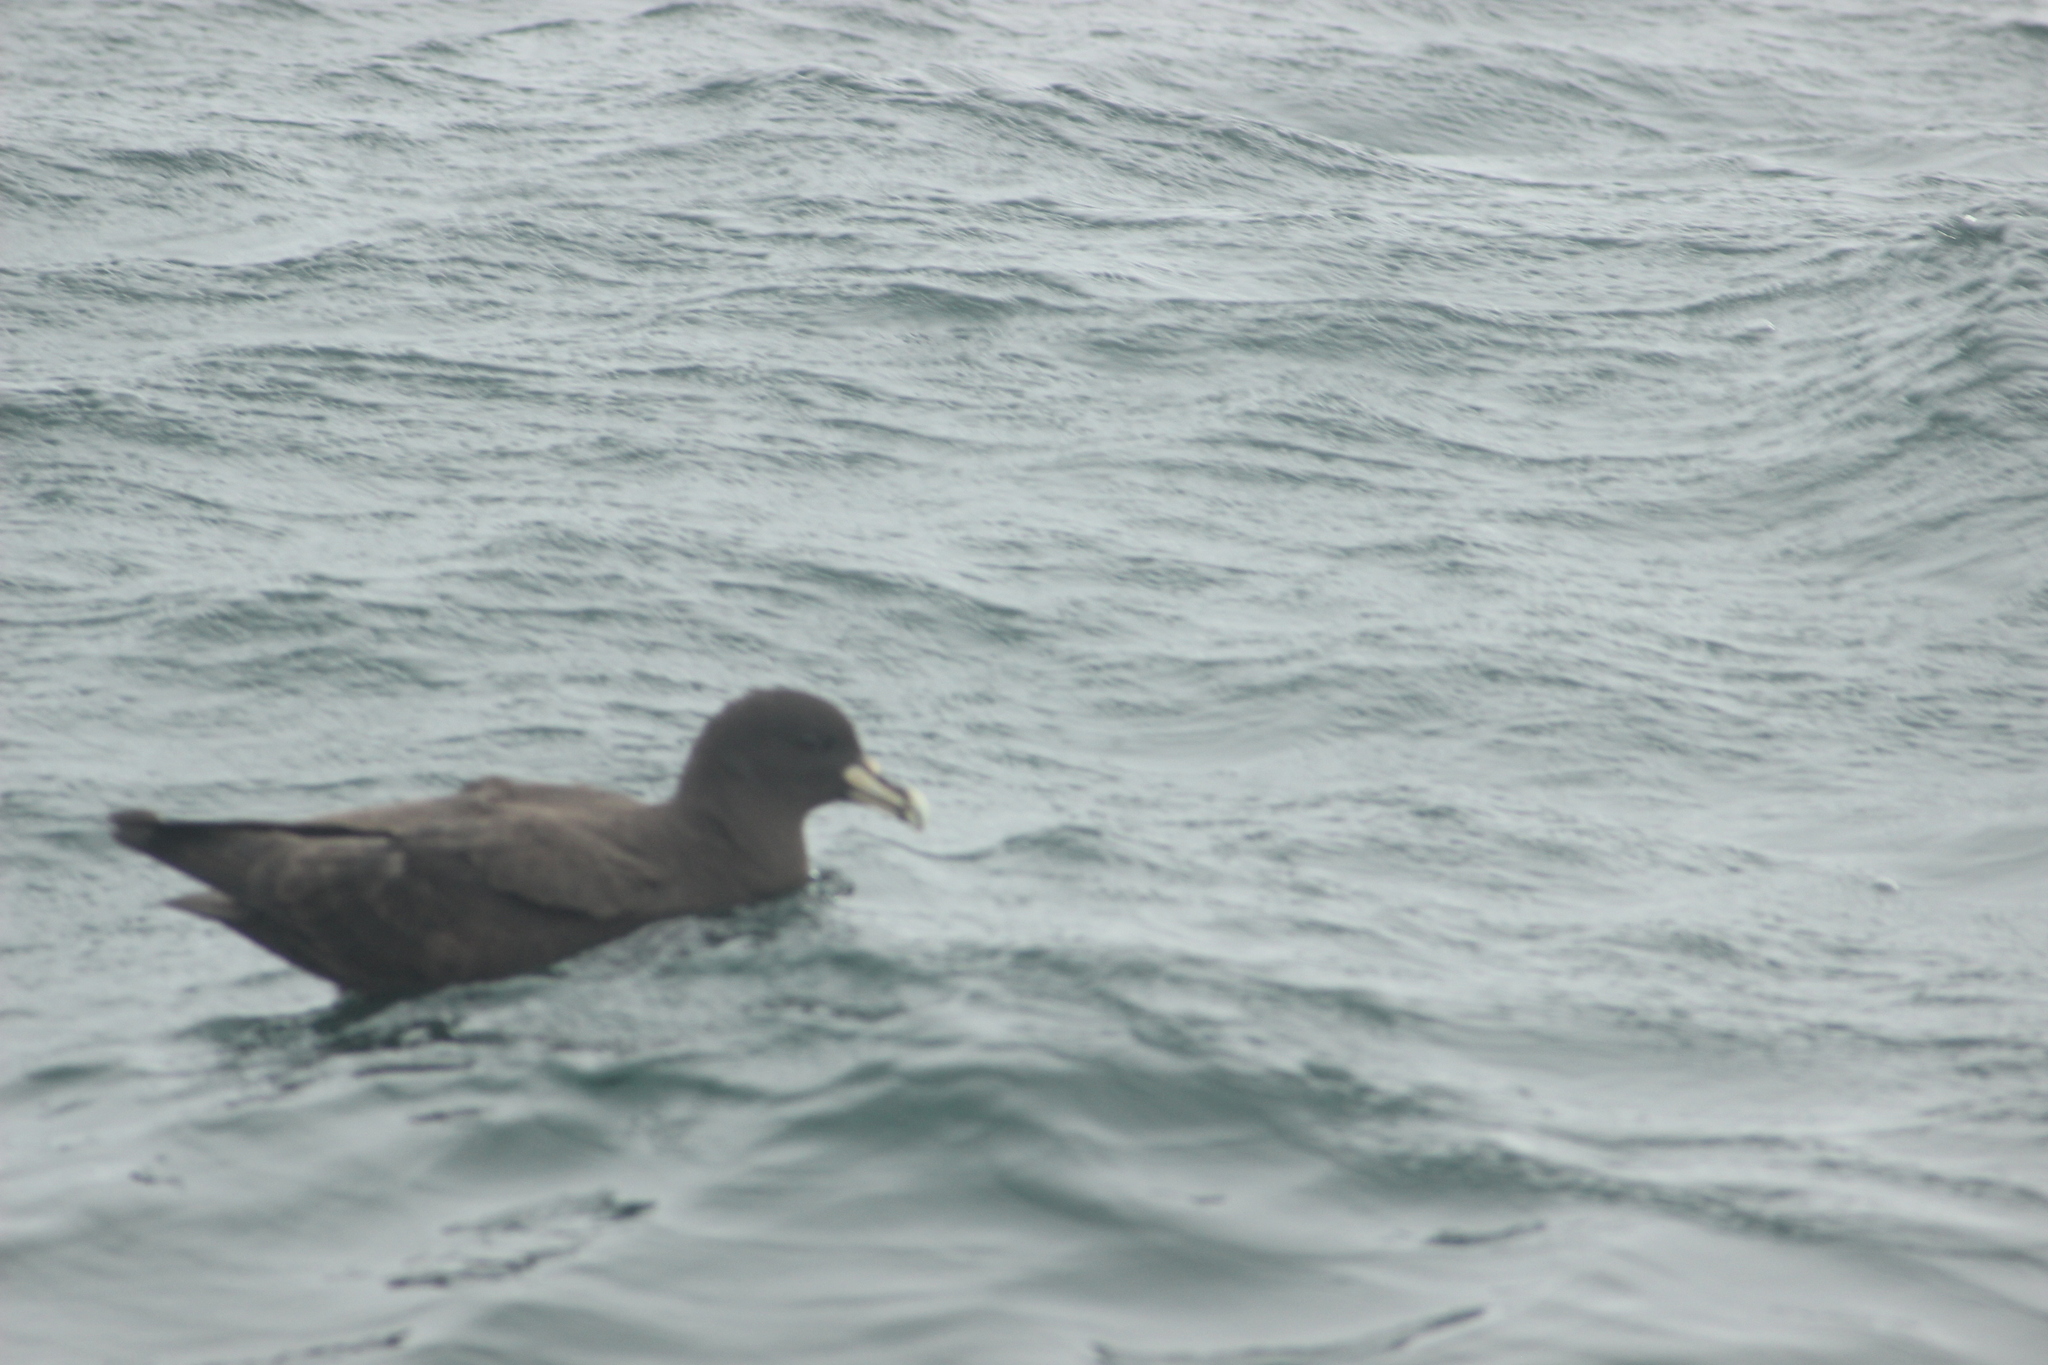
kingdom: Animalia
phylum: Chordata
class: Aves
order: Procellariiformes
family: Procellariidae
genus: Procellaria
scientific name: Procellaria aequinoctialis
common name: White-chinned petrel
